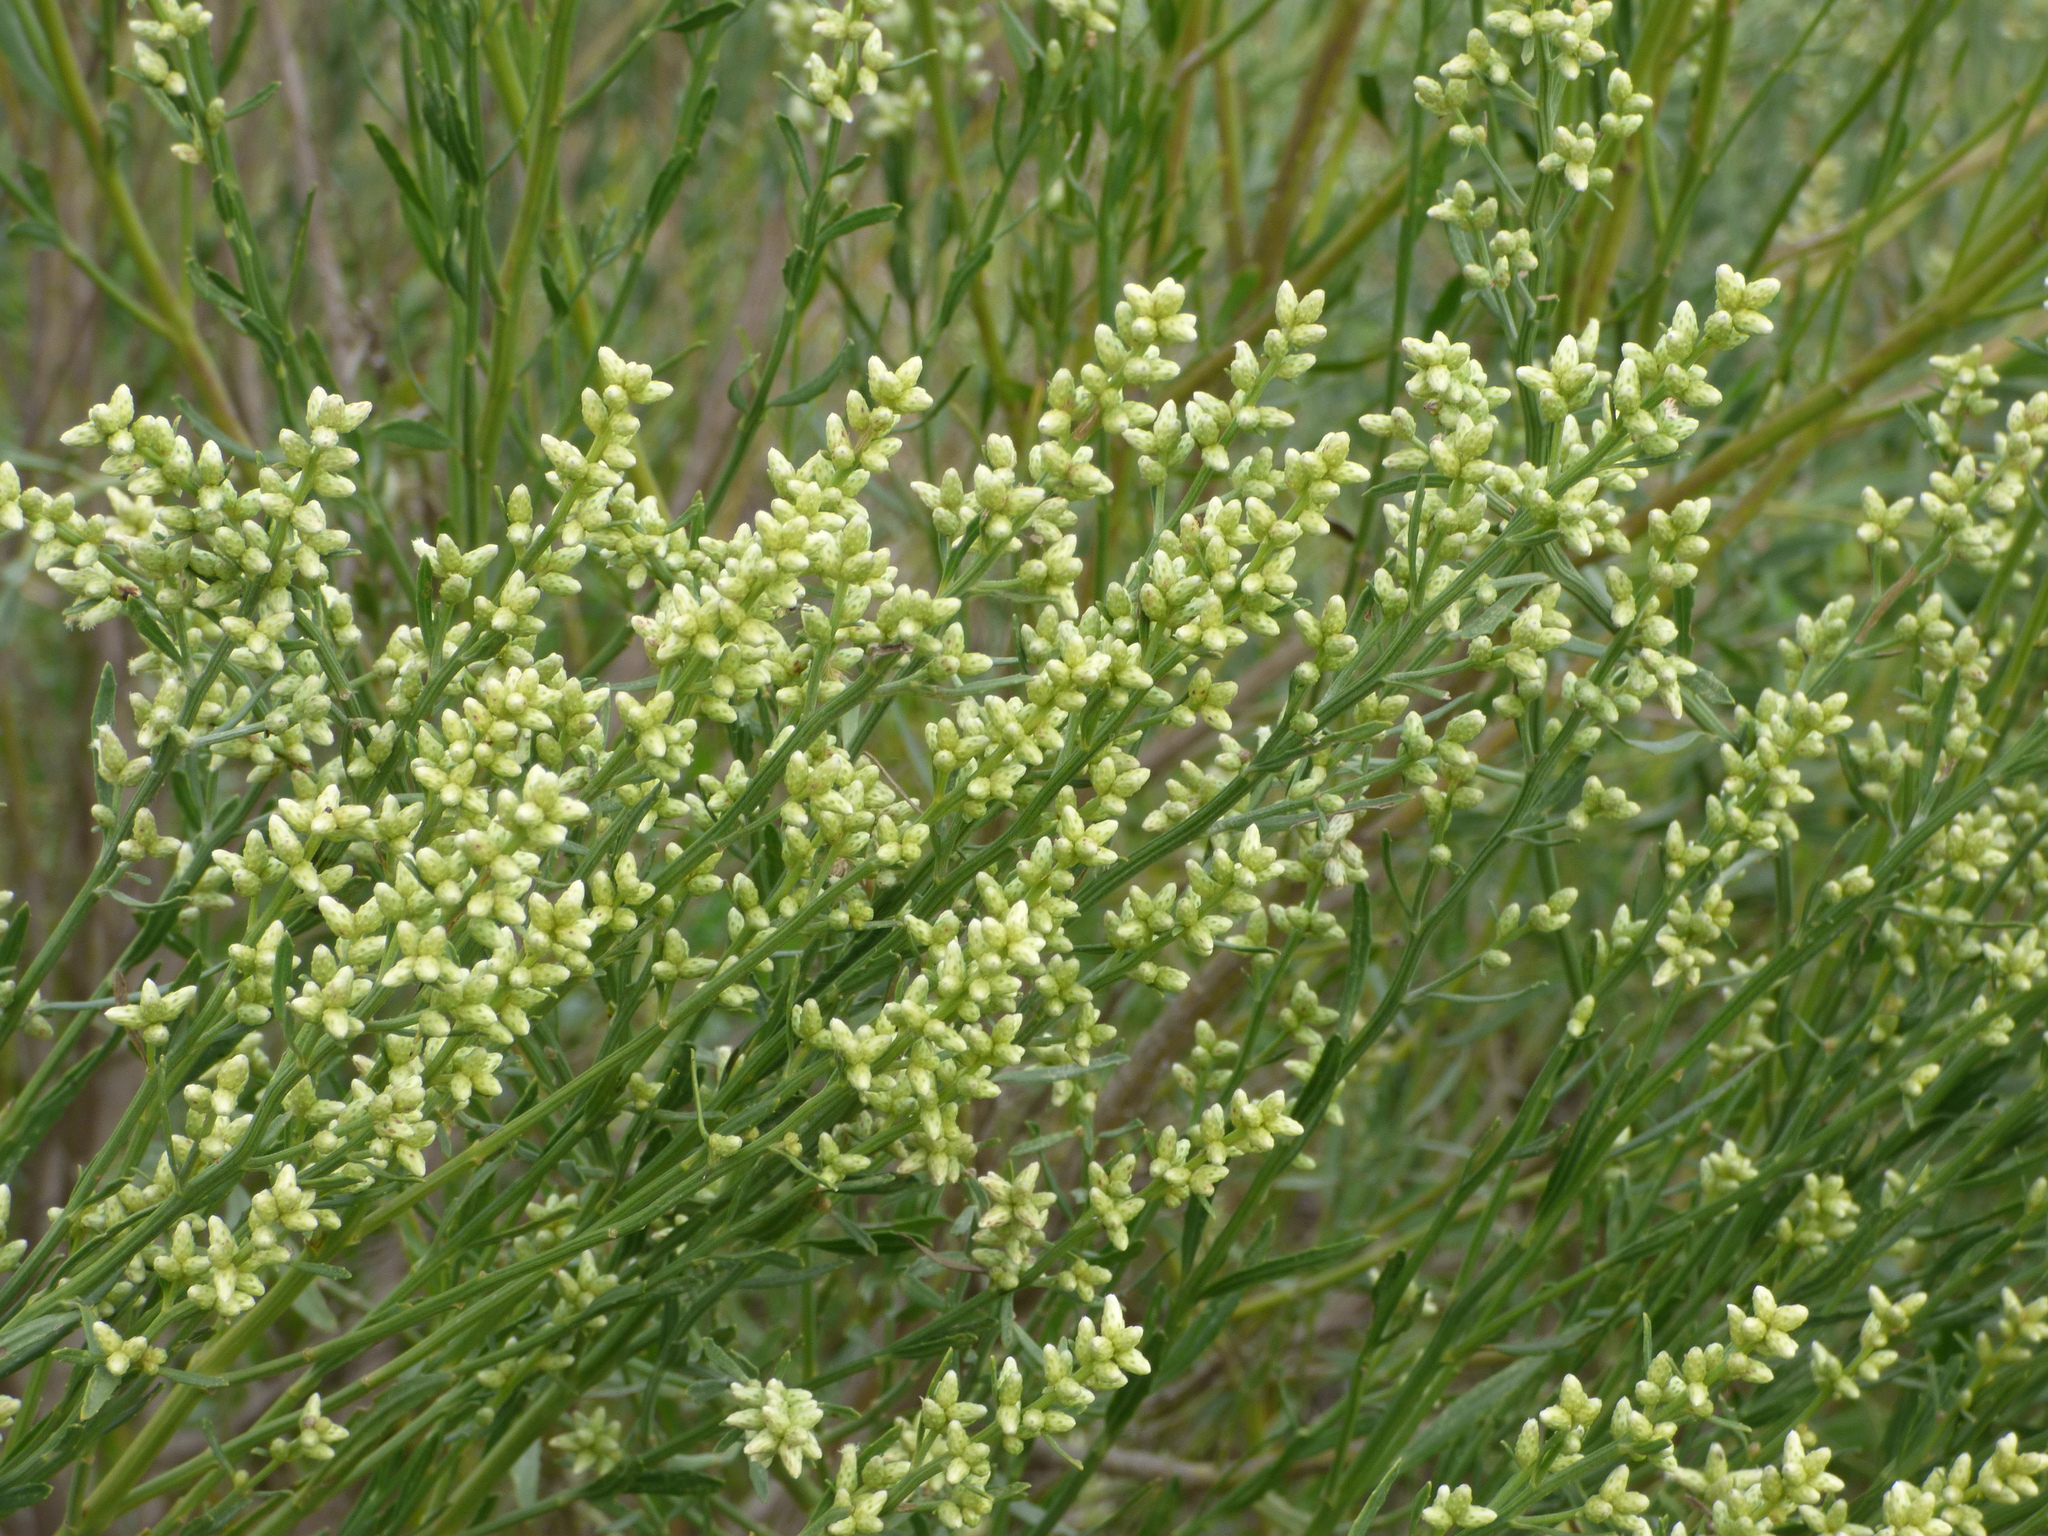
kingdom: Plantae
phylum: Tracheophyta
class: Magnoliopsida
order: Asterales
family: Asteraceae
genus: Baccharis
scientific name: Baccharis spicata
